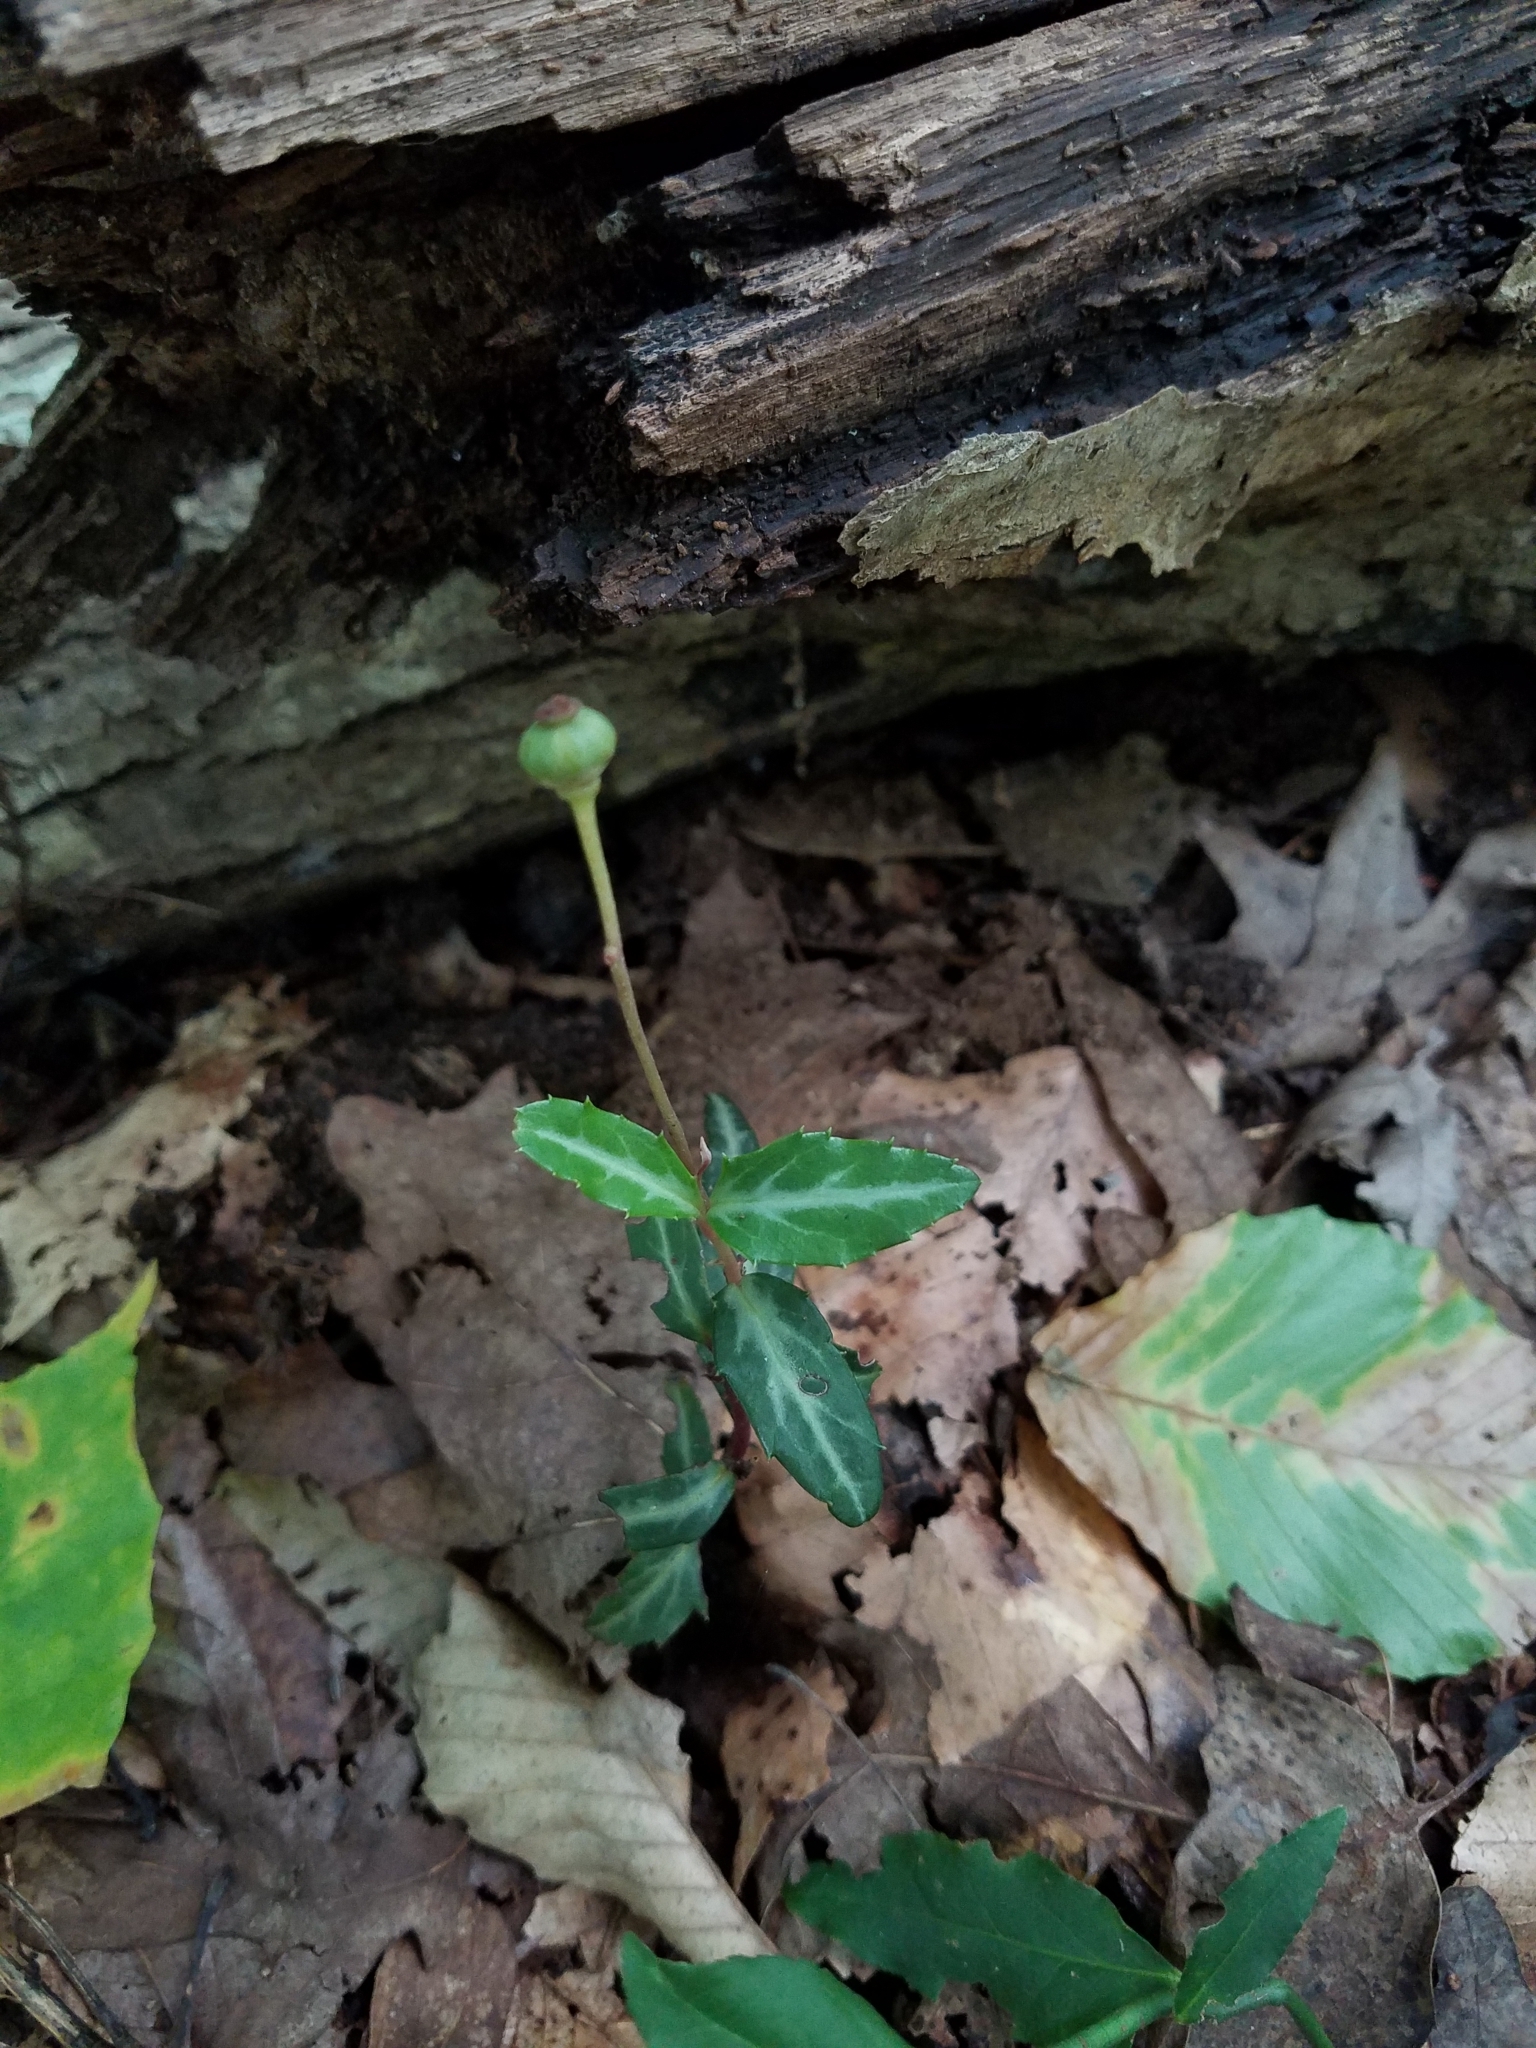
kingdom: Plantae
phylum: Tracheophyta
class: Magnoliopsida
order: Ericales
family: Ericaceae
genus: Chimaphila
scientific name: Chimaphila maculata
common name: Spotted pipsissewa
